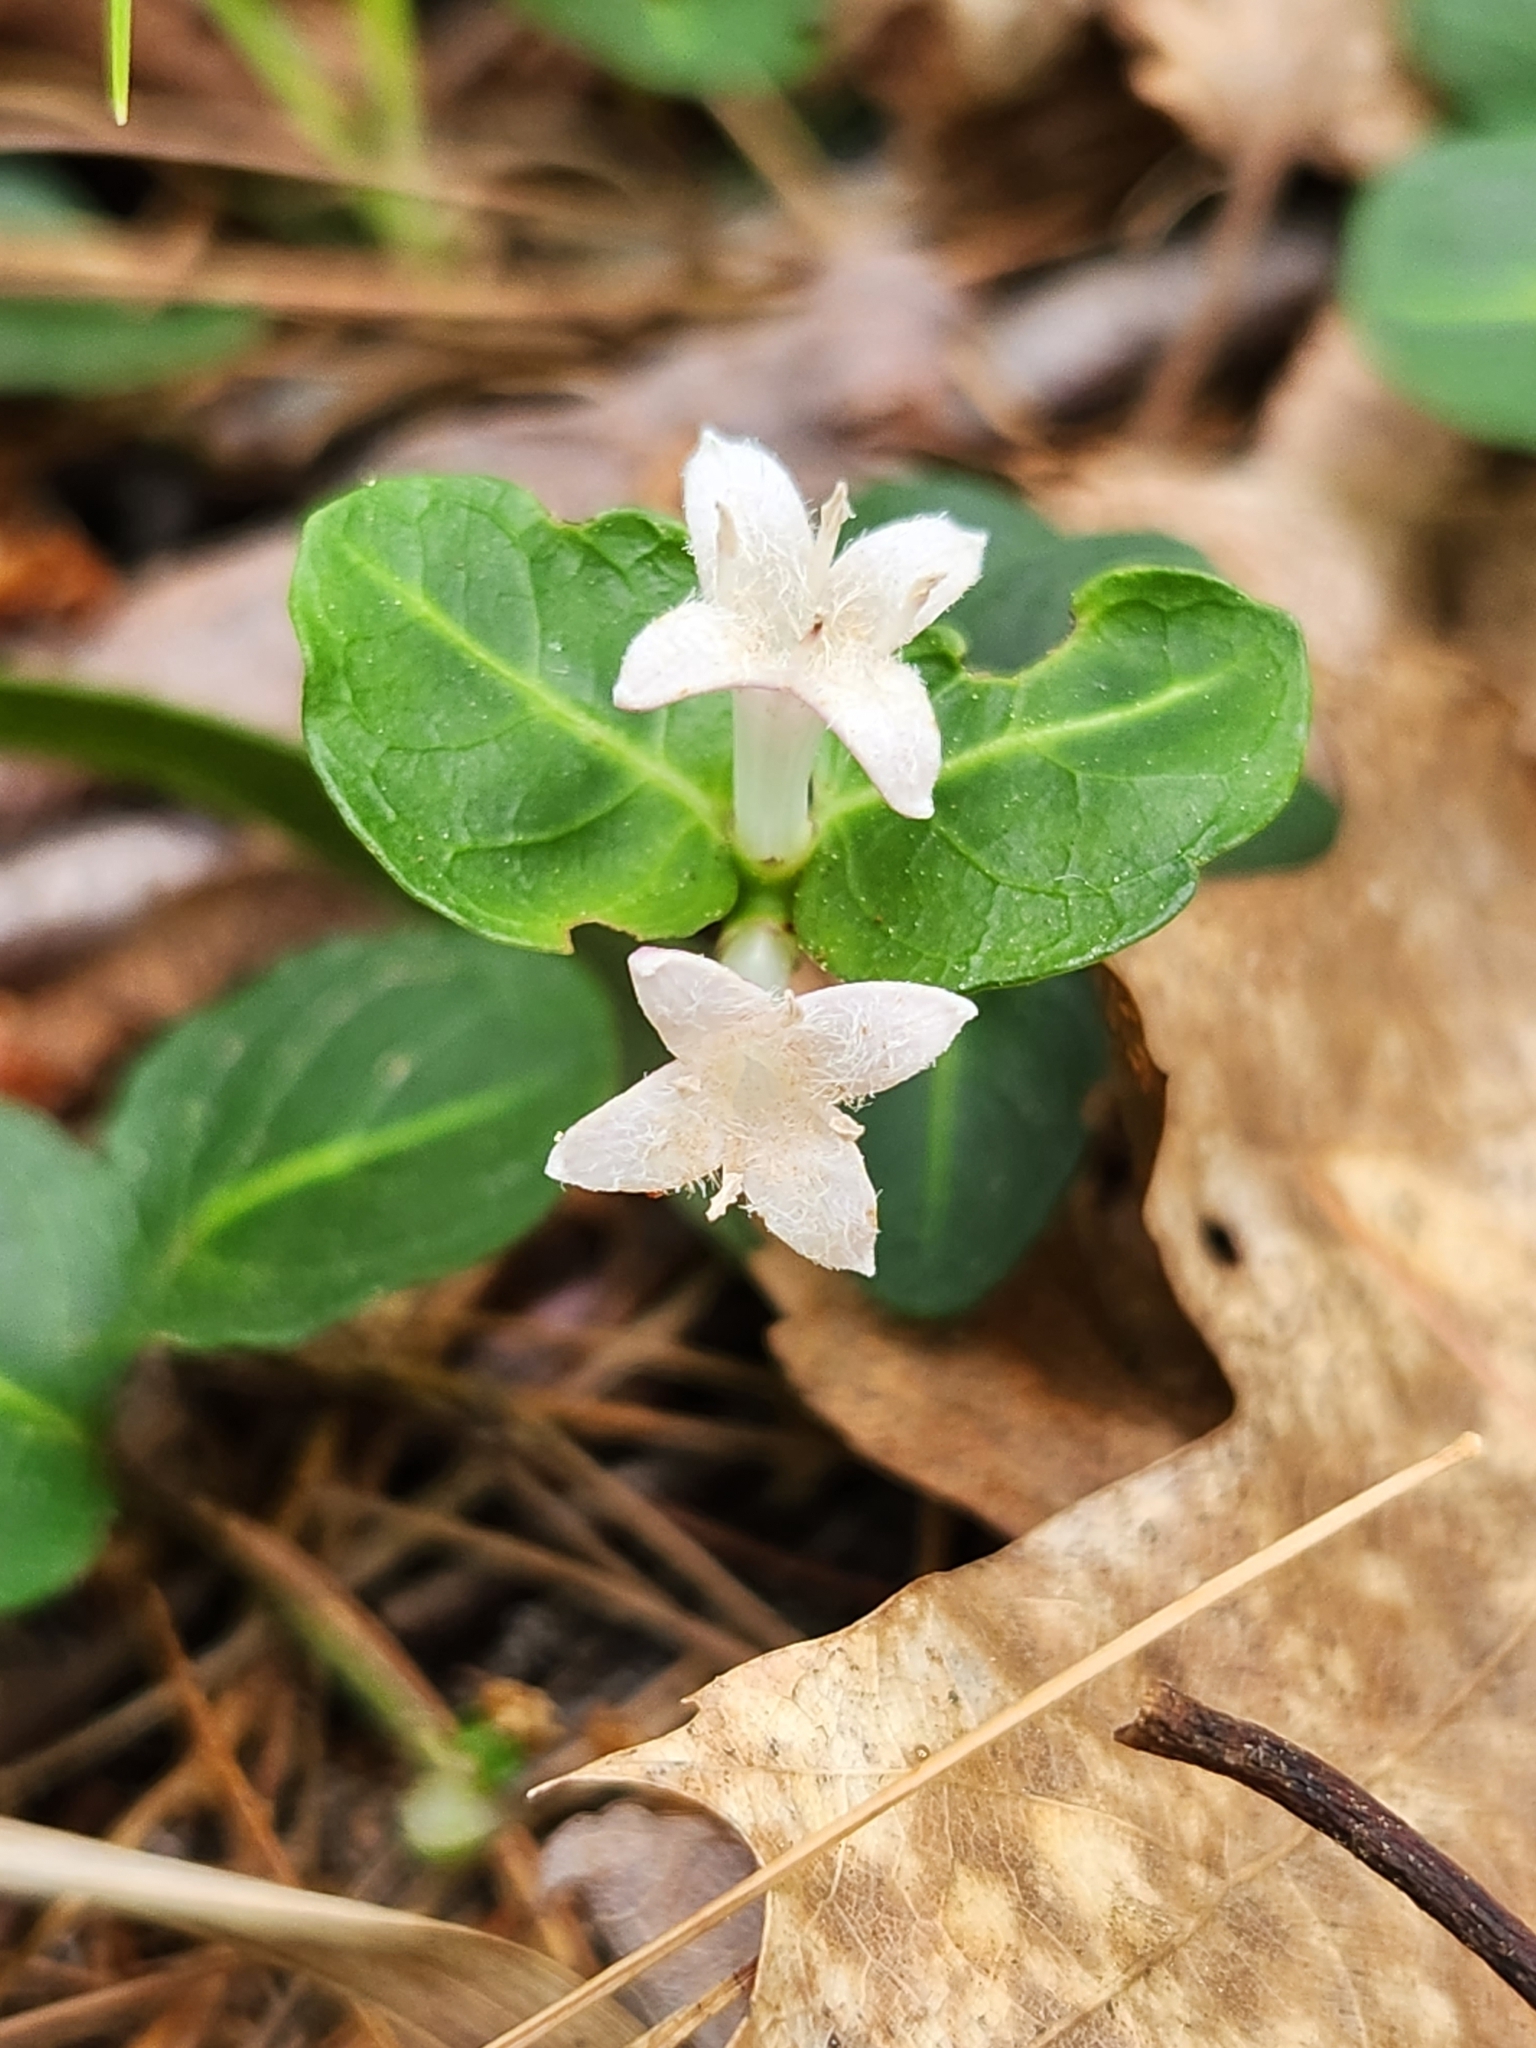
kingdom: Plantae
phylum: Tracheophyta
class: Magnoliopsida
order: Gentianales
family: Rubiaceae
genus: Mitchella
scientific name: Mitchella repens
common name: Partridge-berry
